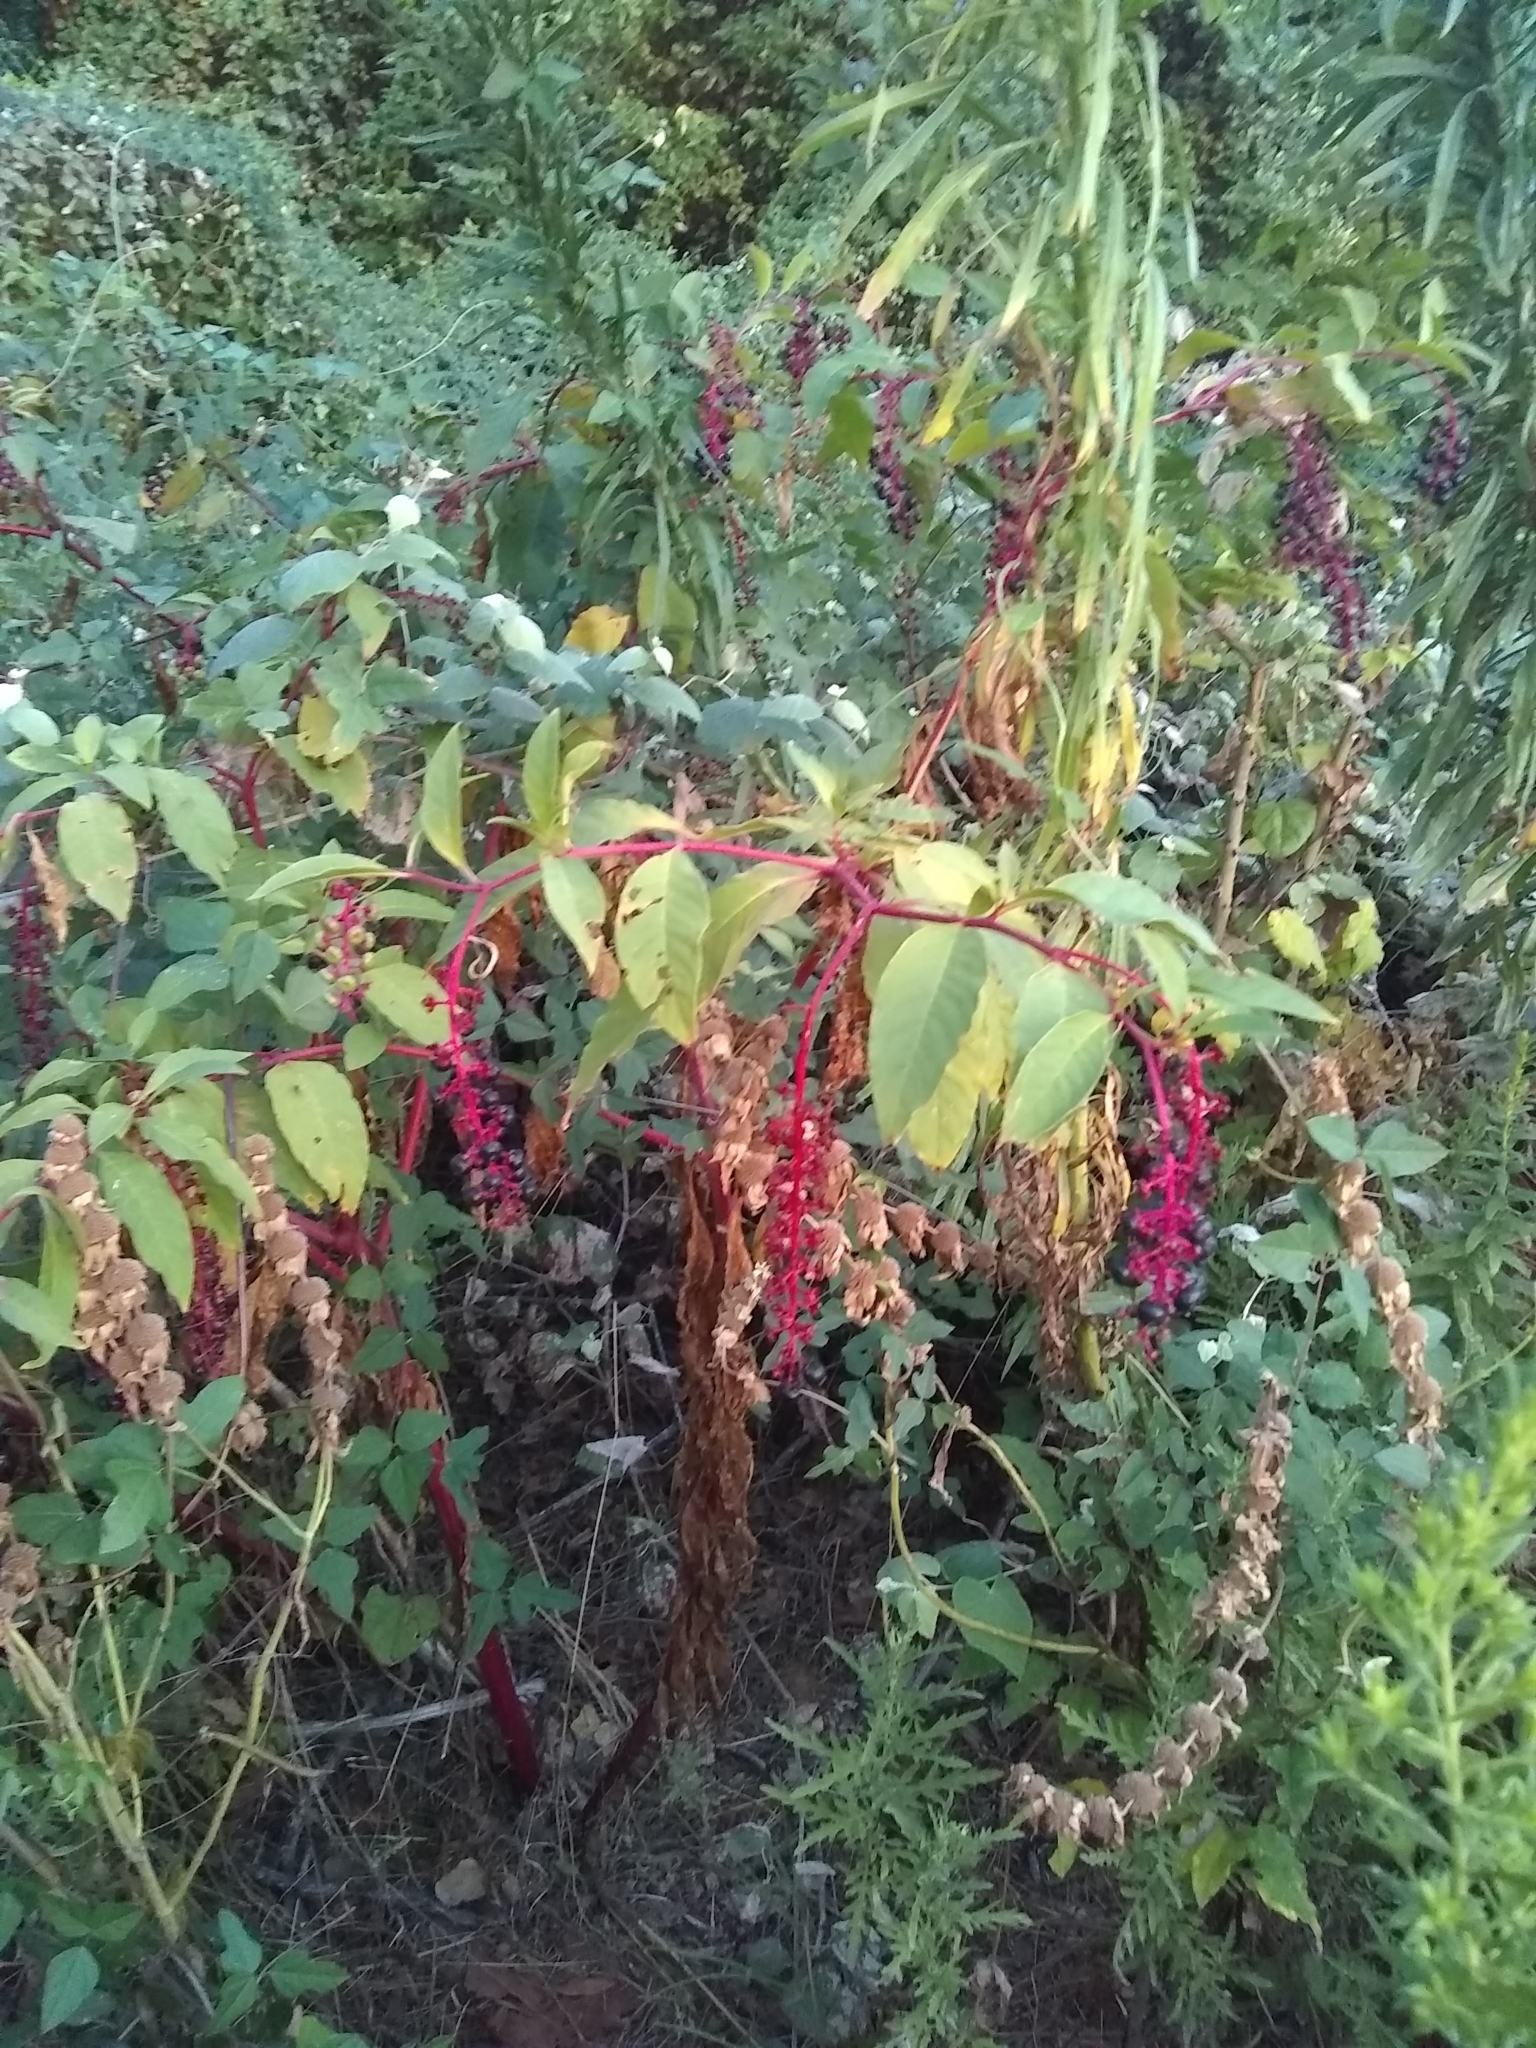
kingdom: Plantae
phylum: Tracheophyta
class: Magnoliopsida
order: Caryophyllales
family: Phytolaccaceae
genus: Phytolacca
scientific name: Phytolacca americana
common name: American pokeweed
